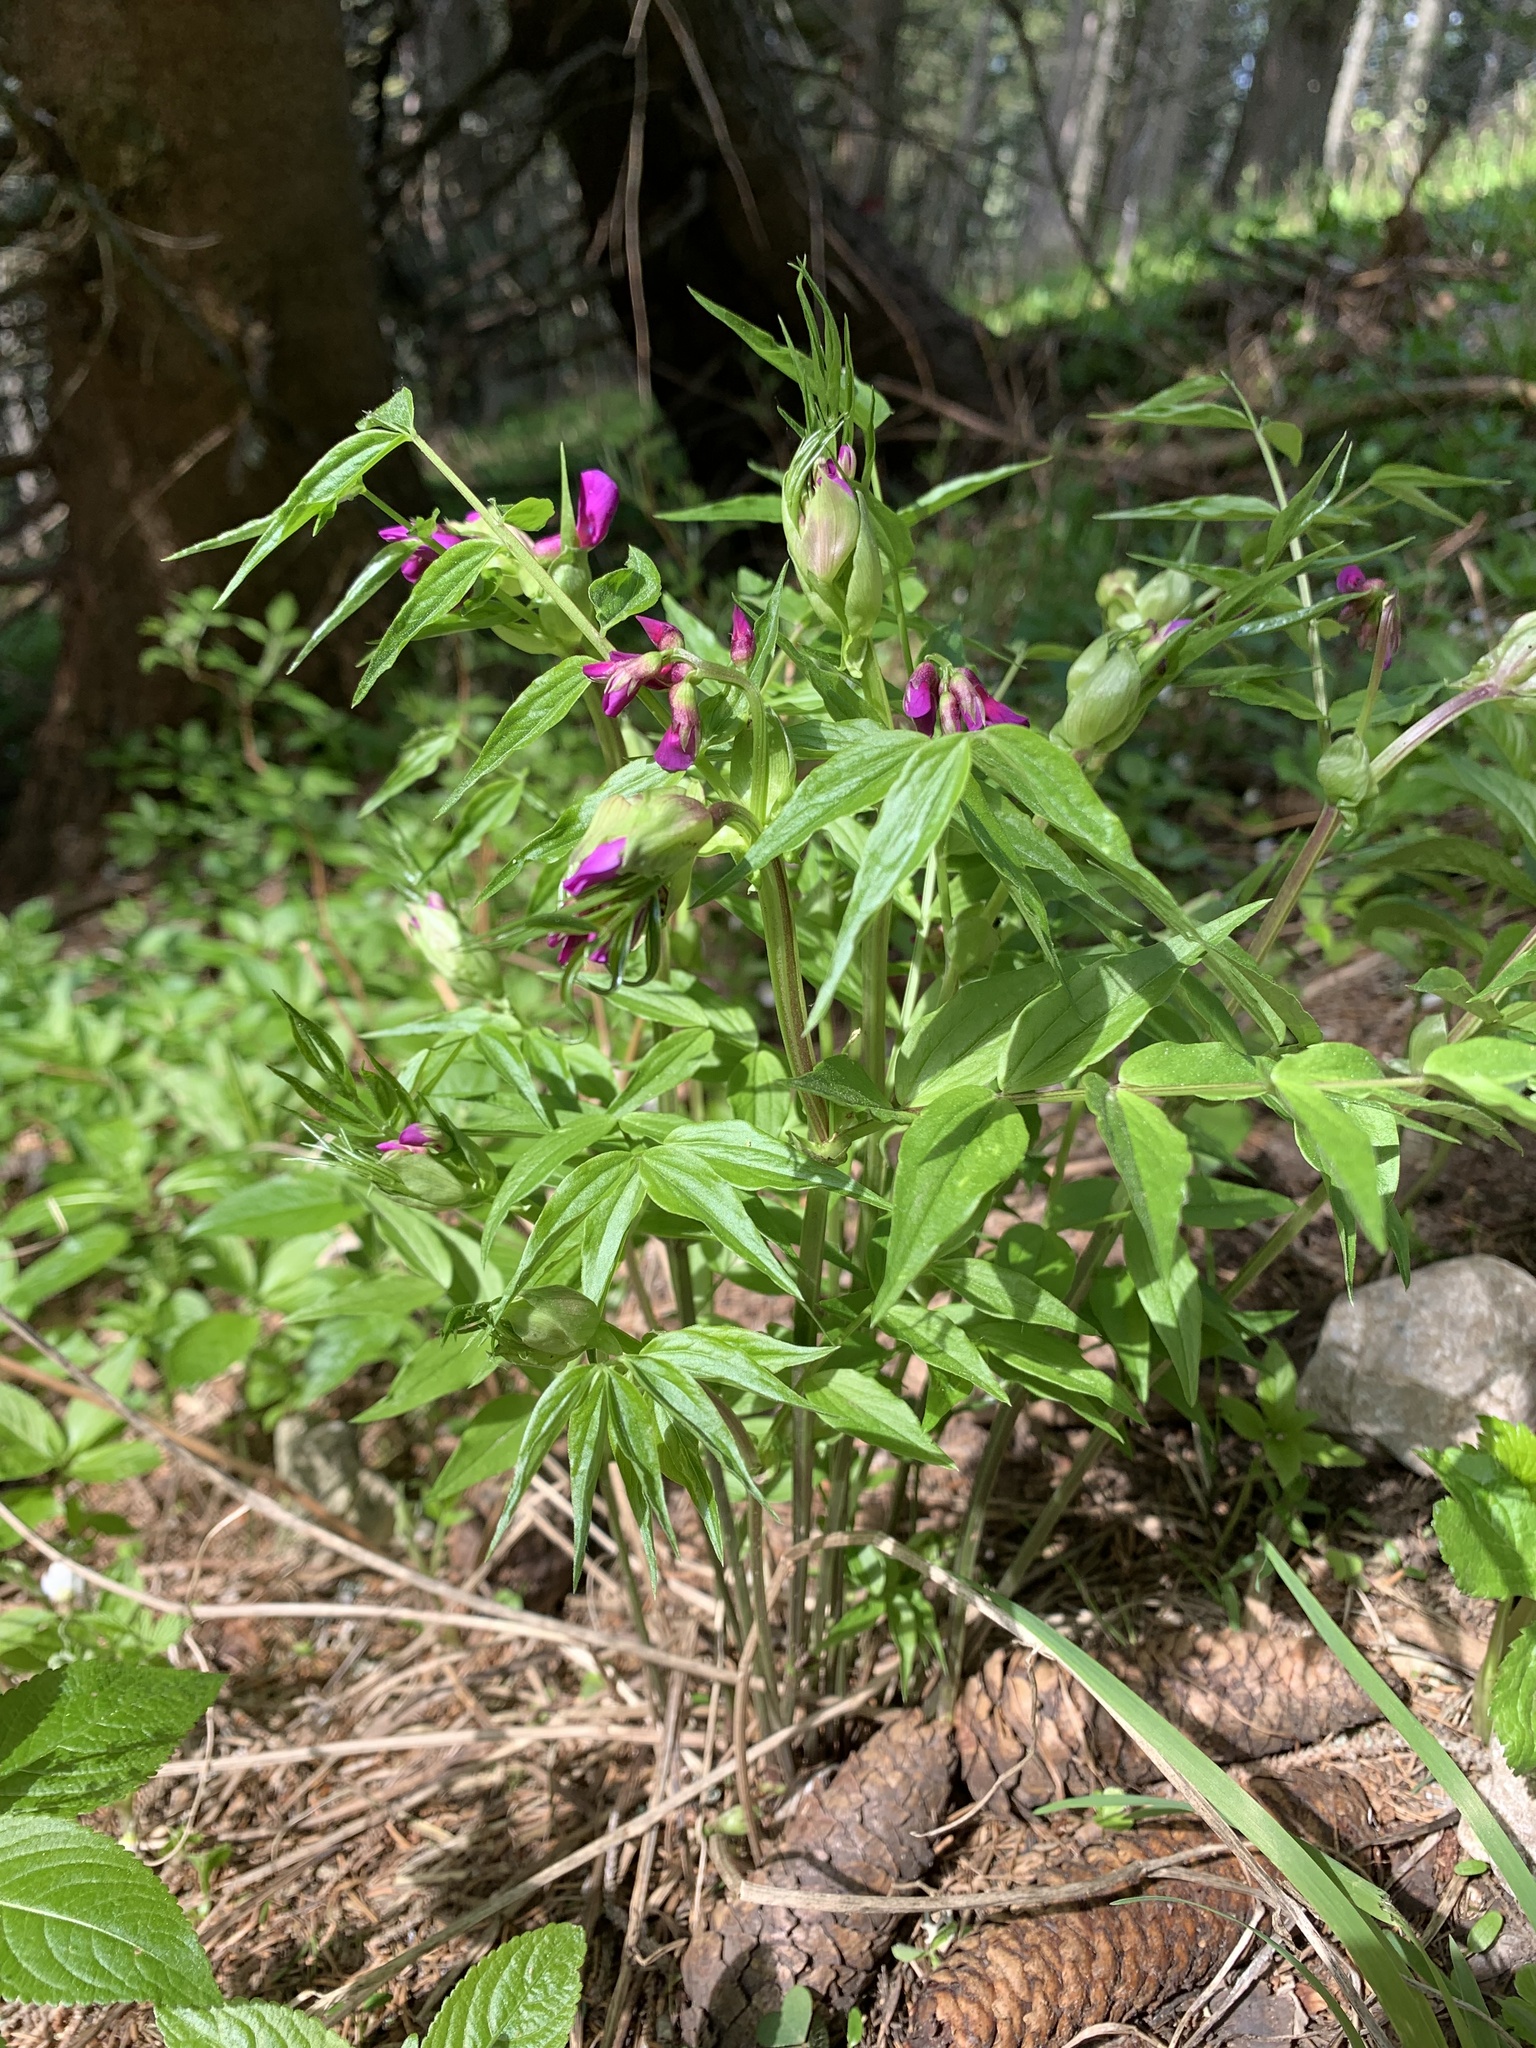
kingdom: Plantae
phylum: Tracheophyta
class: Magnoliopsida
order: Fabales
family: Fabaceae
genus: Lathyrus
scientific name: Lathyrus vernus
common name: Spring pea
